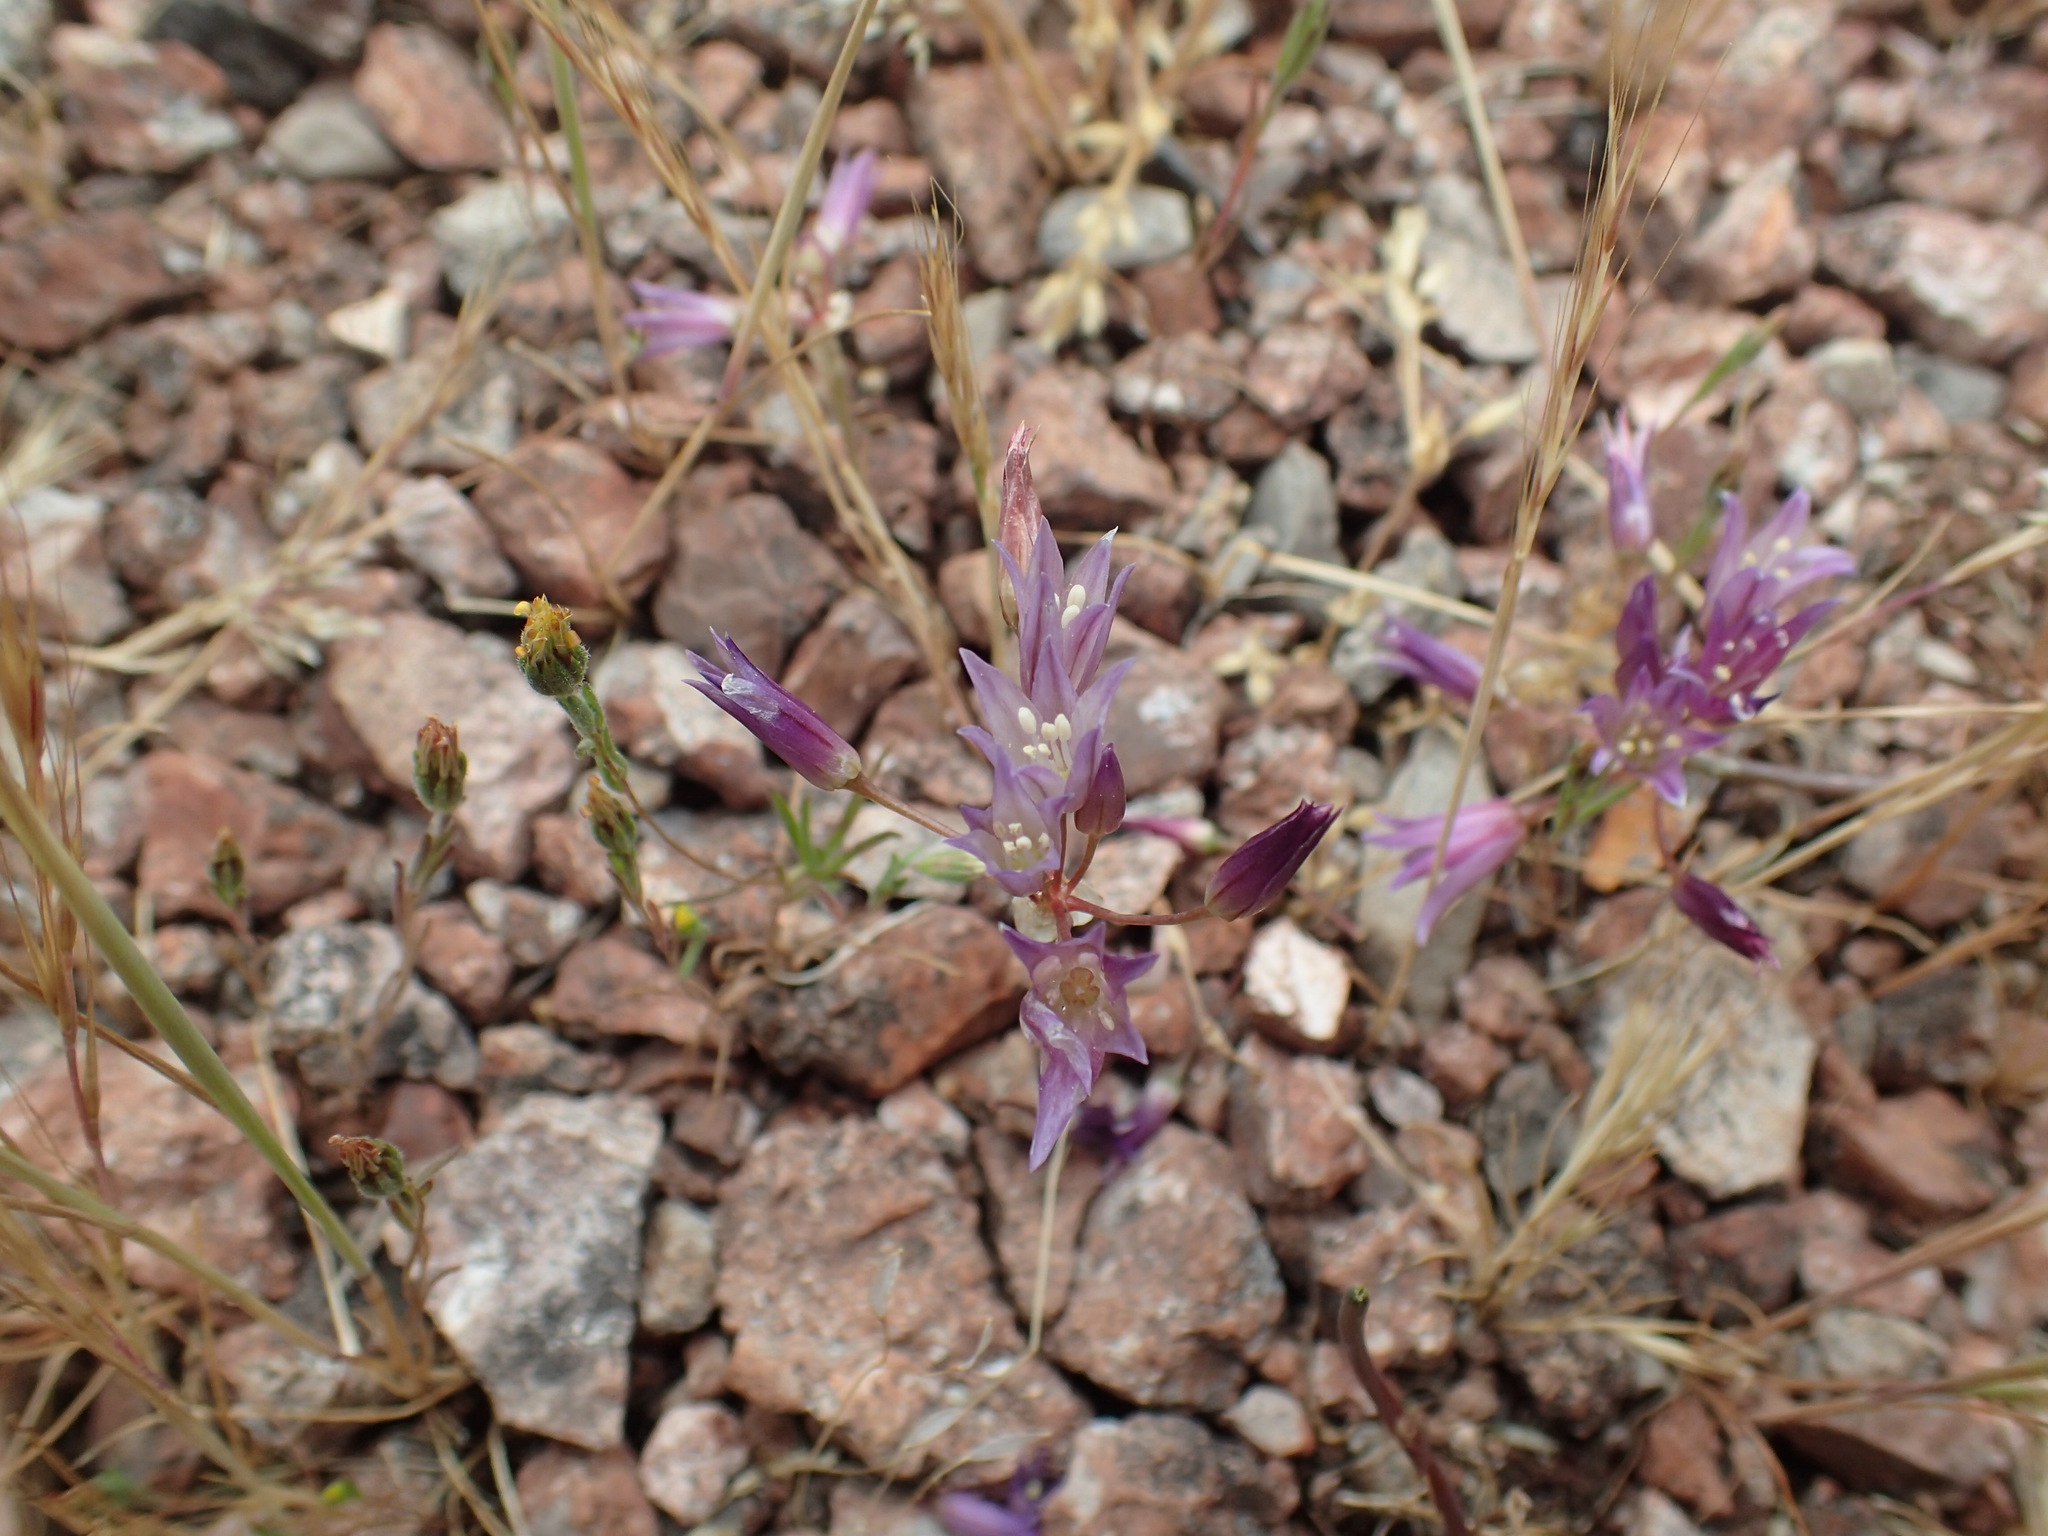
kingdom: Plantae
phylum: Tracheophyta
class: Liliopsida
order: Asparagales
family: Amaryllidaceae
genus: Allium
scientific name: Allium fimbriatum
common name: Fringed onion
